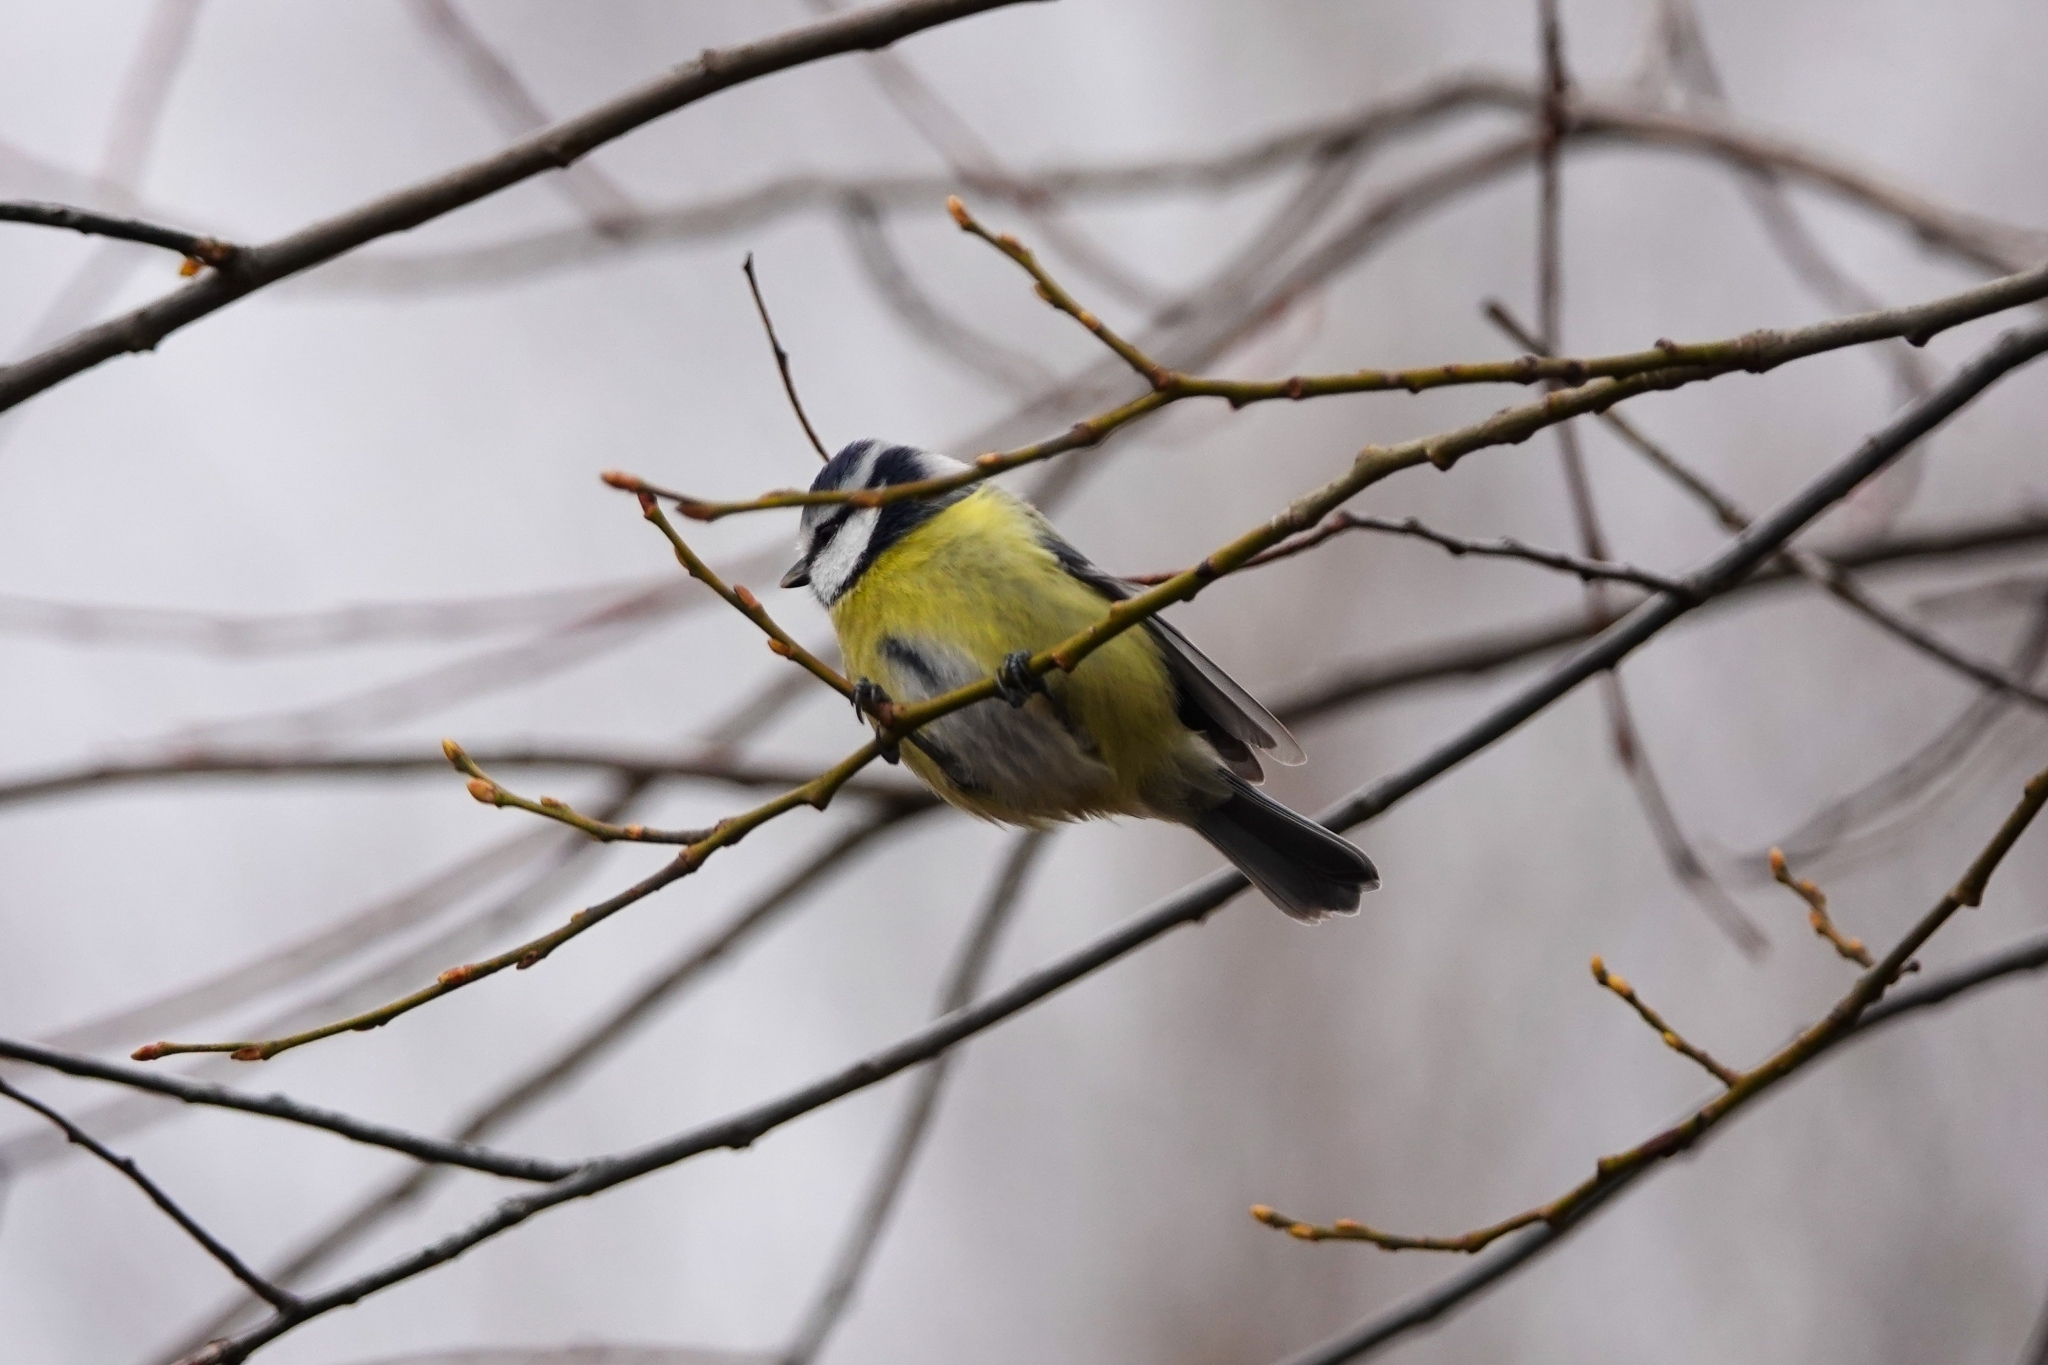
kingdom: Animalia
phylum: Chordata
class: Aves
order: Passeriformes
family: Paridae
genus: Cyanistes
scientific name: Cyanistes caeruleus
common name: Eurasian blue tit
